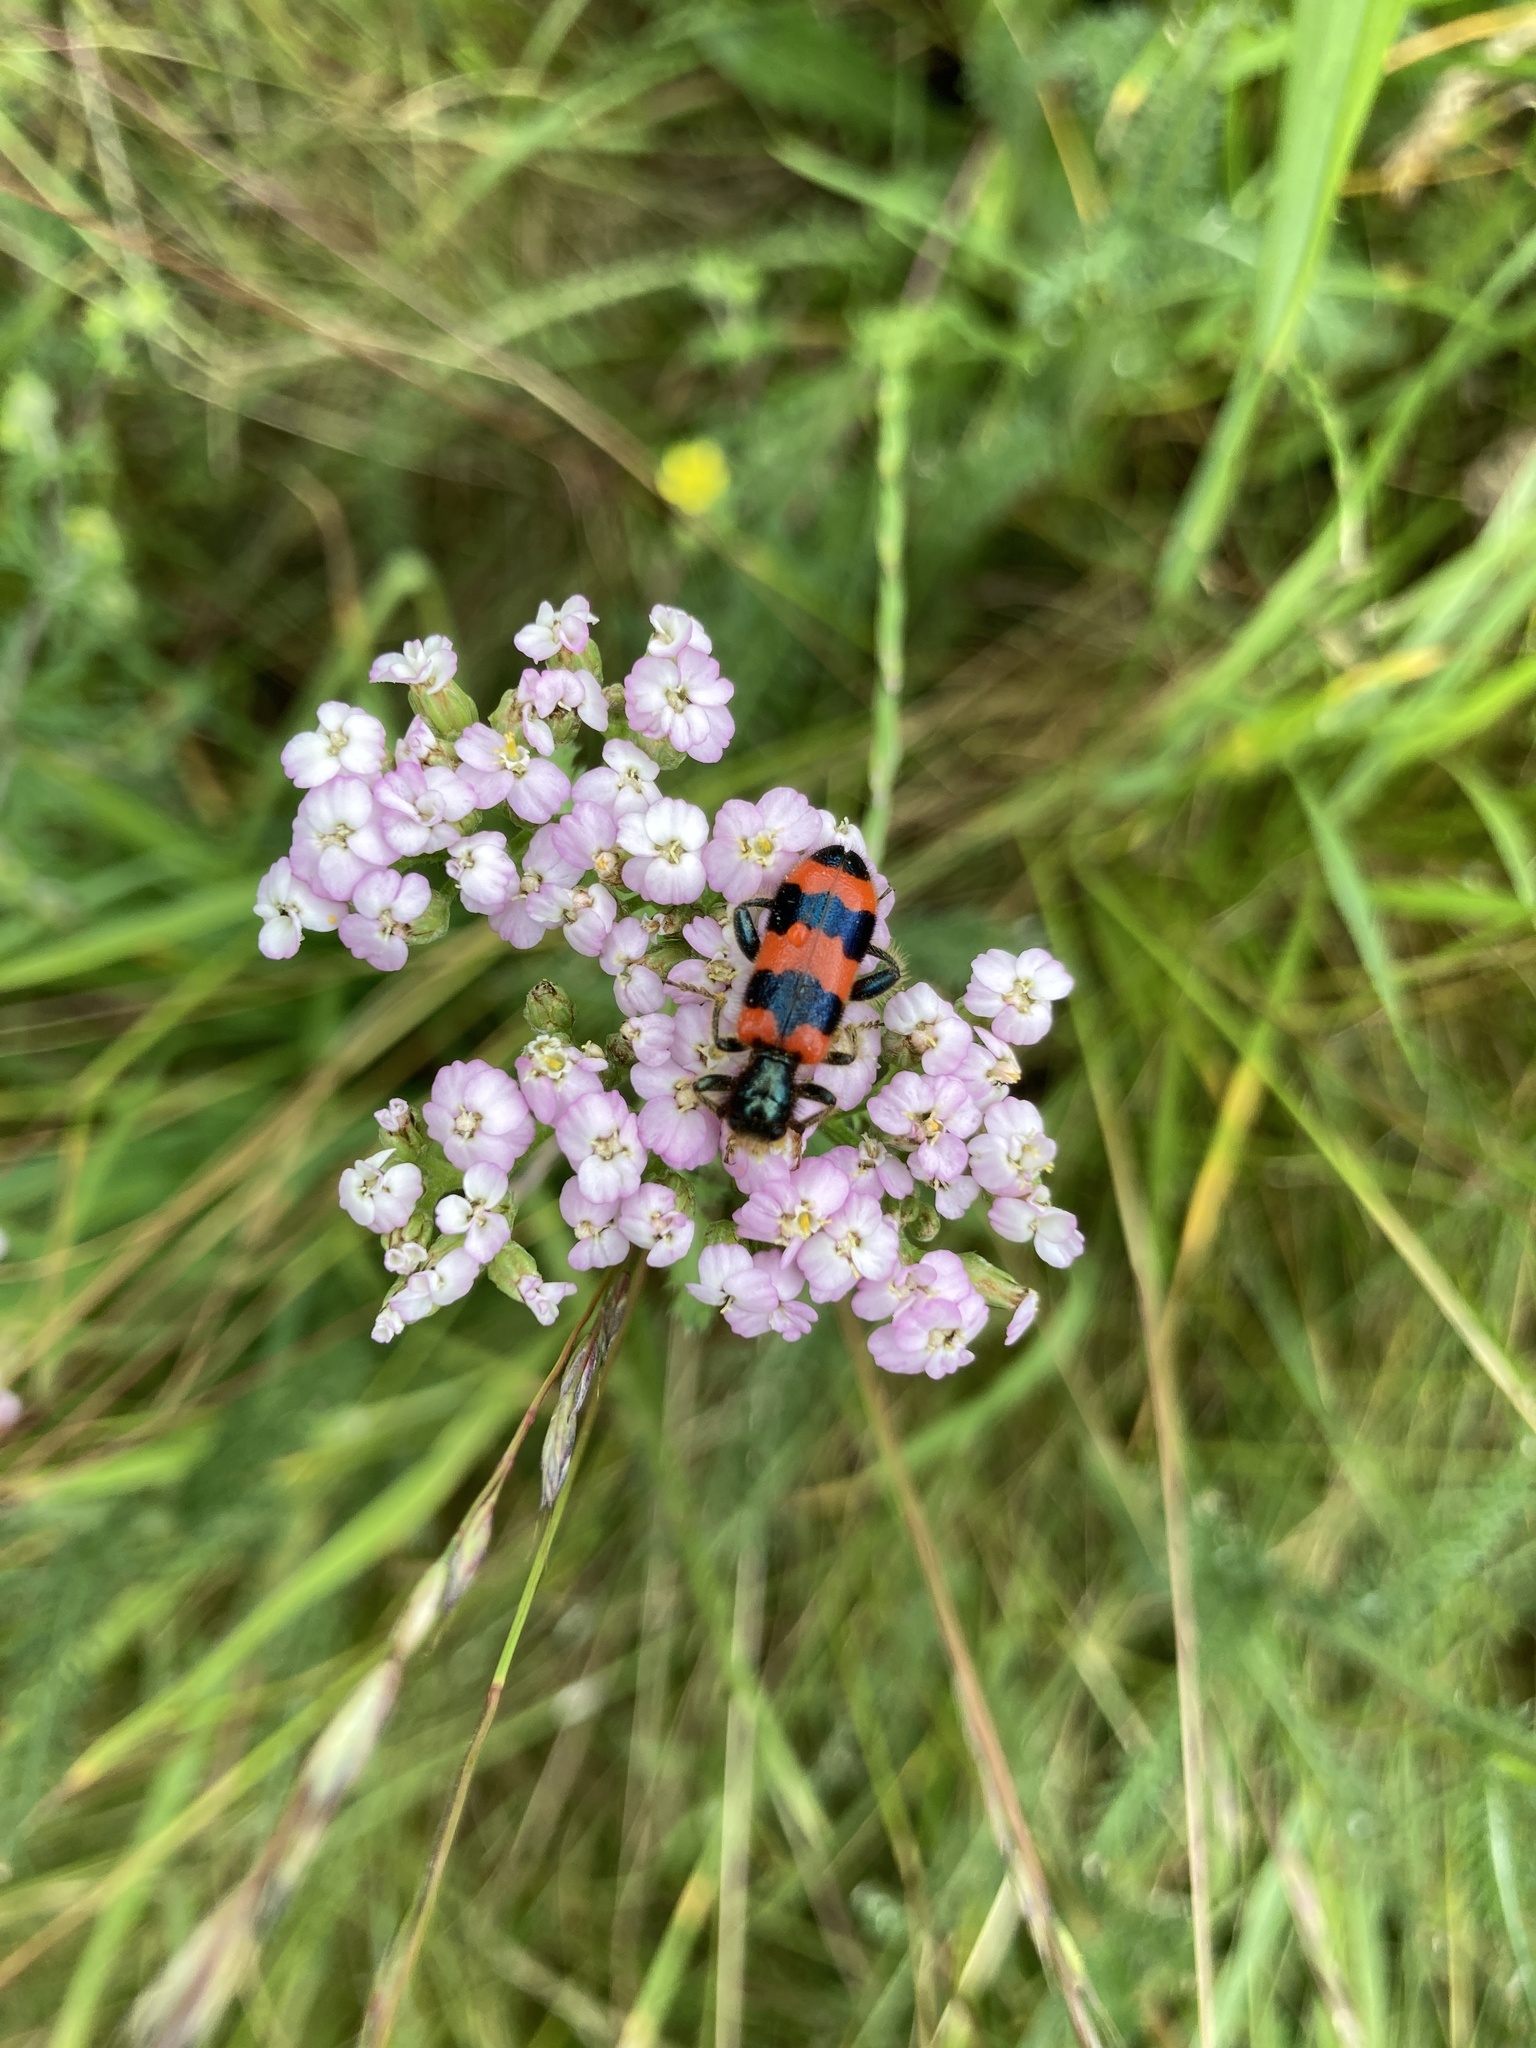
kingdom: Animalia
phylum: Arthropoda
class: Insecta
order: Coleoptera
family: Cleridae
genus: Trichodes
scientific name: Trichodes apiarius
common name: Bee-eating beetle
